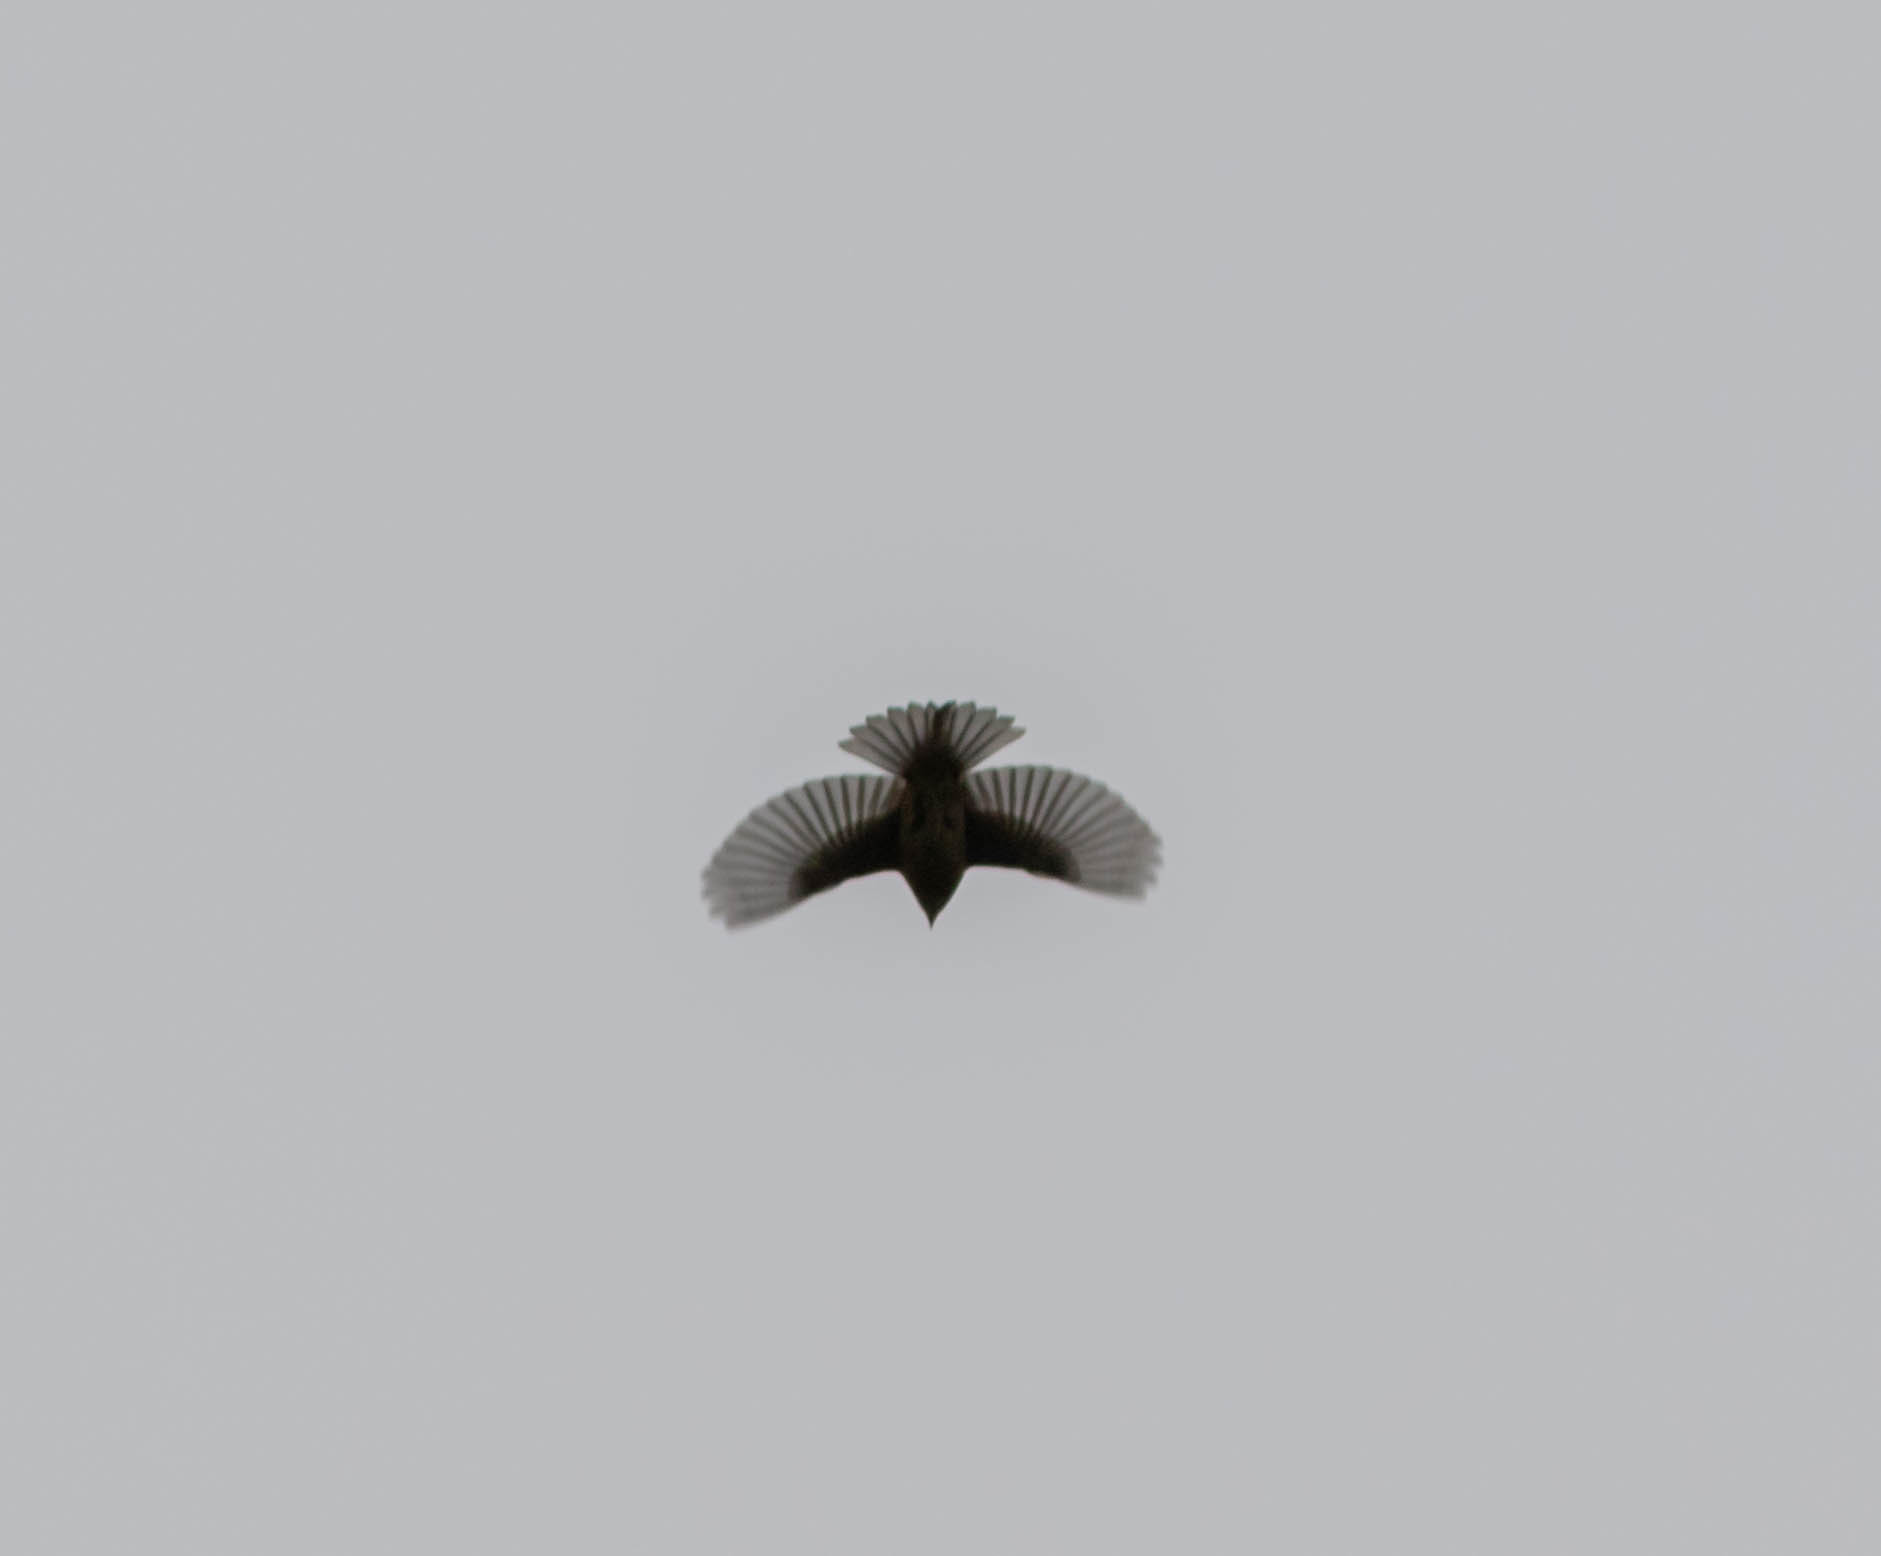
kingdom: Animalia
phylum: Chordata
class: Aves
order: Passeriformes
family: Cardinalidae
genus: Pheucticus
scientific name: Pheucticus ludovicianus
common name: Rose-breasted grosbeak
